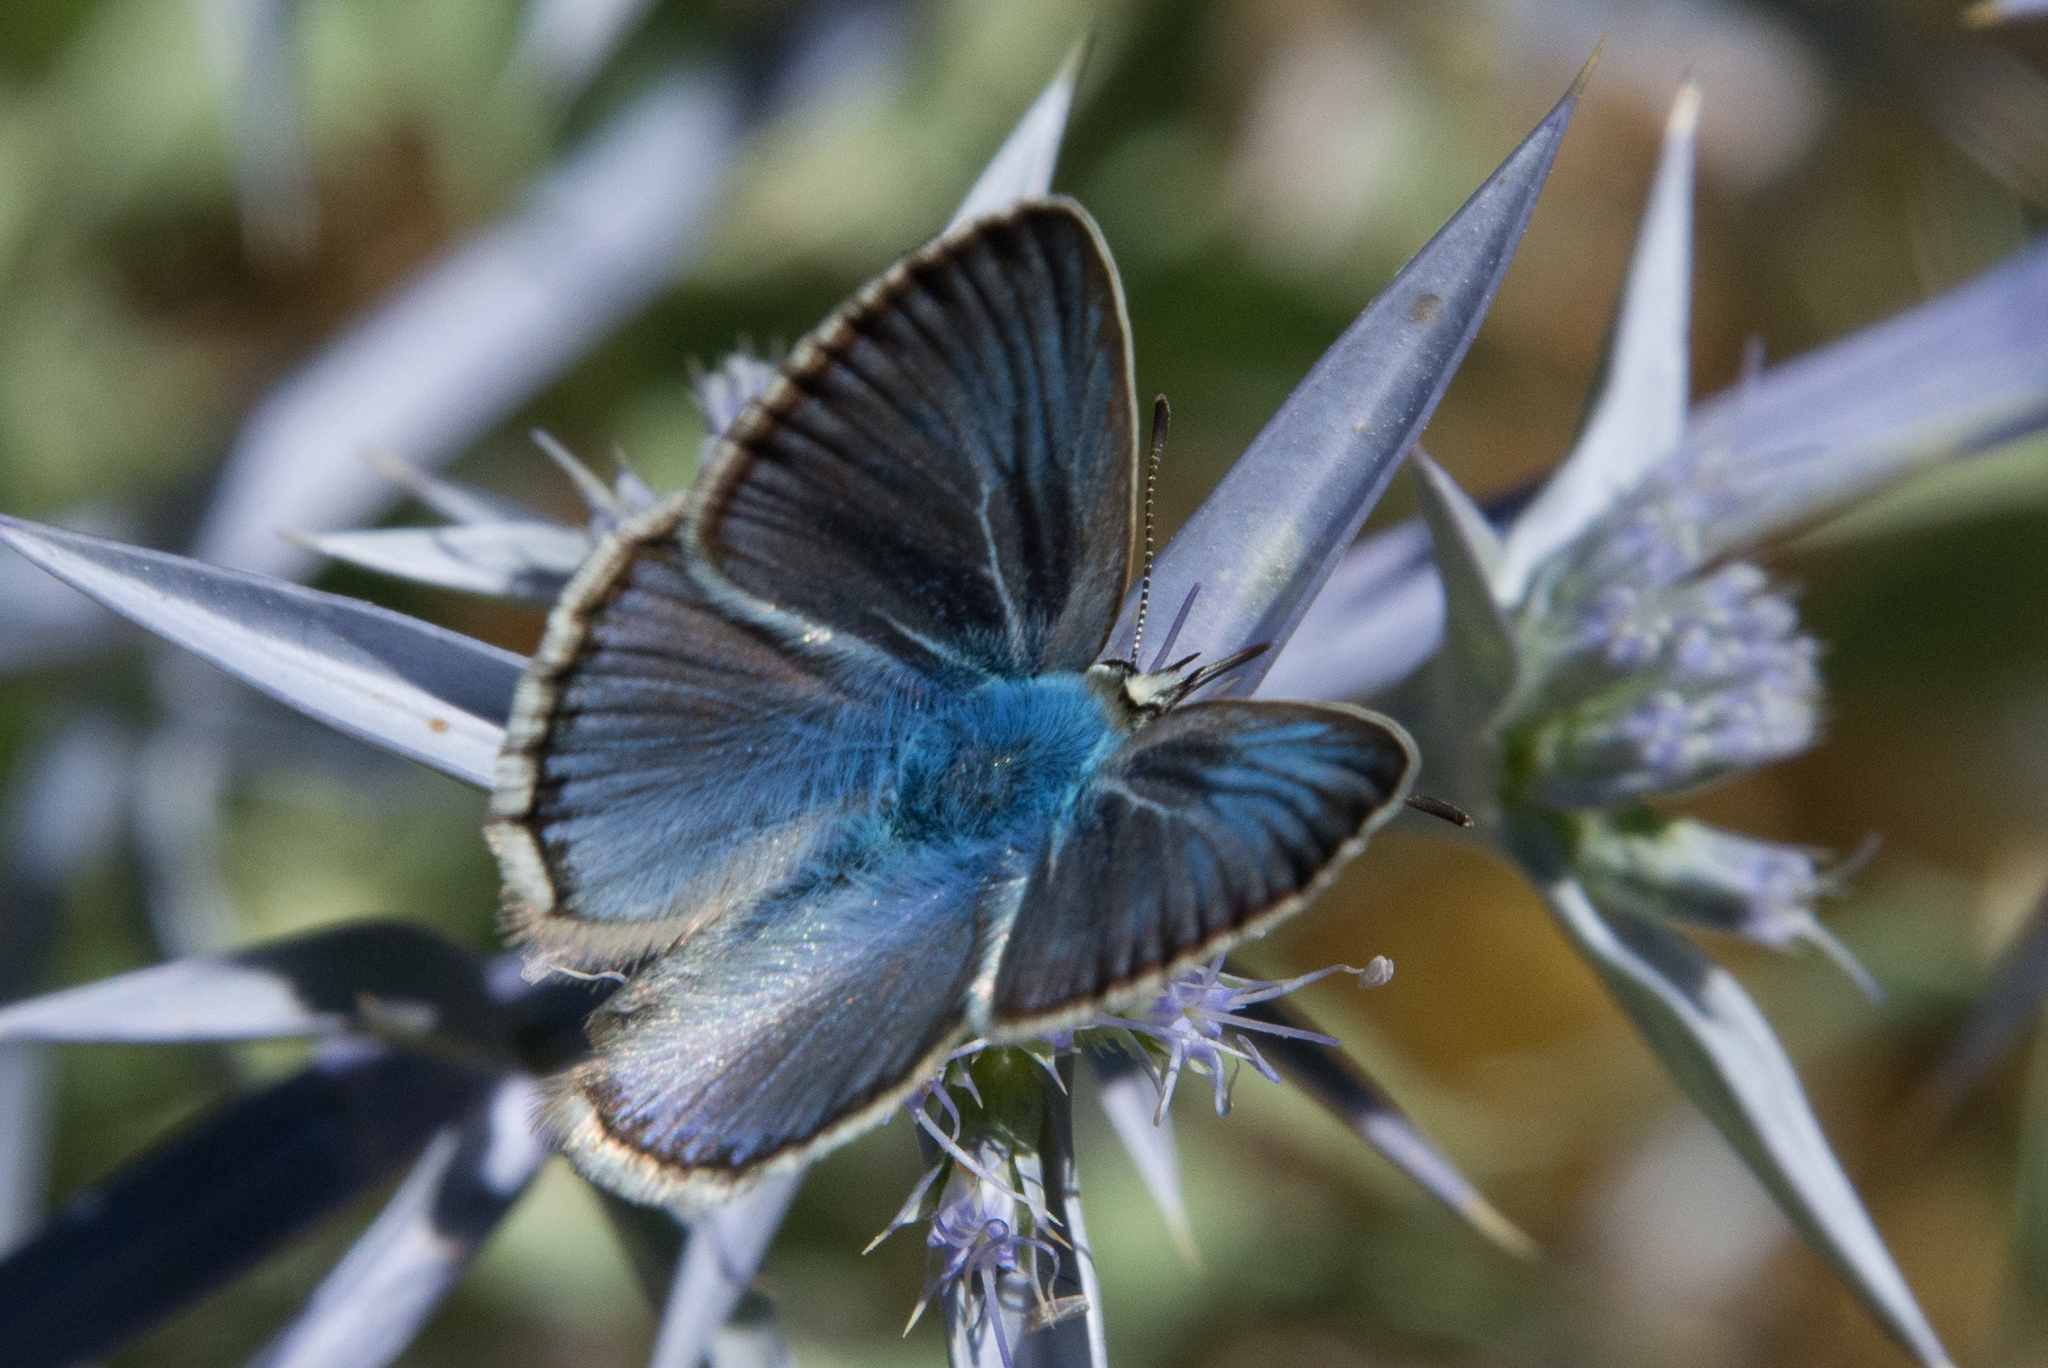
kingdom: Animalia
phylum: Arthropoda
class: Insecta
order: Lepidoptera
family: Lycaenidae
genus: Polyommatus
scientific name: Polyommatus celina
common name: Austaut's blue
